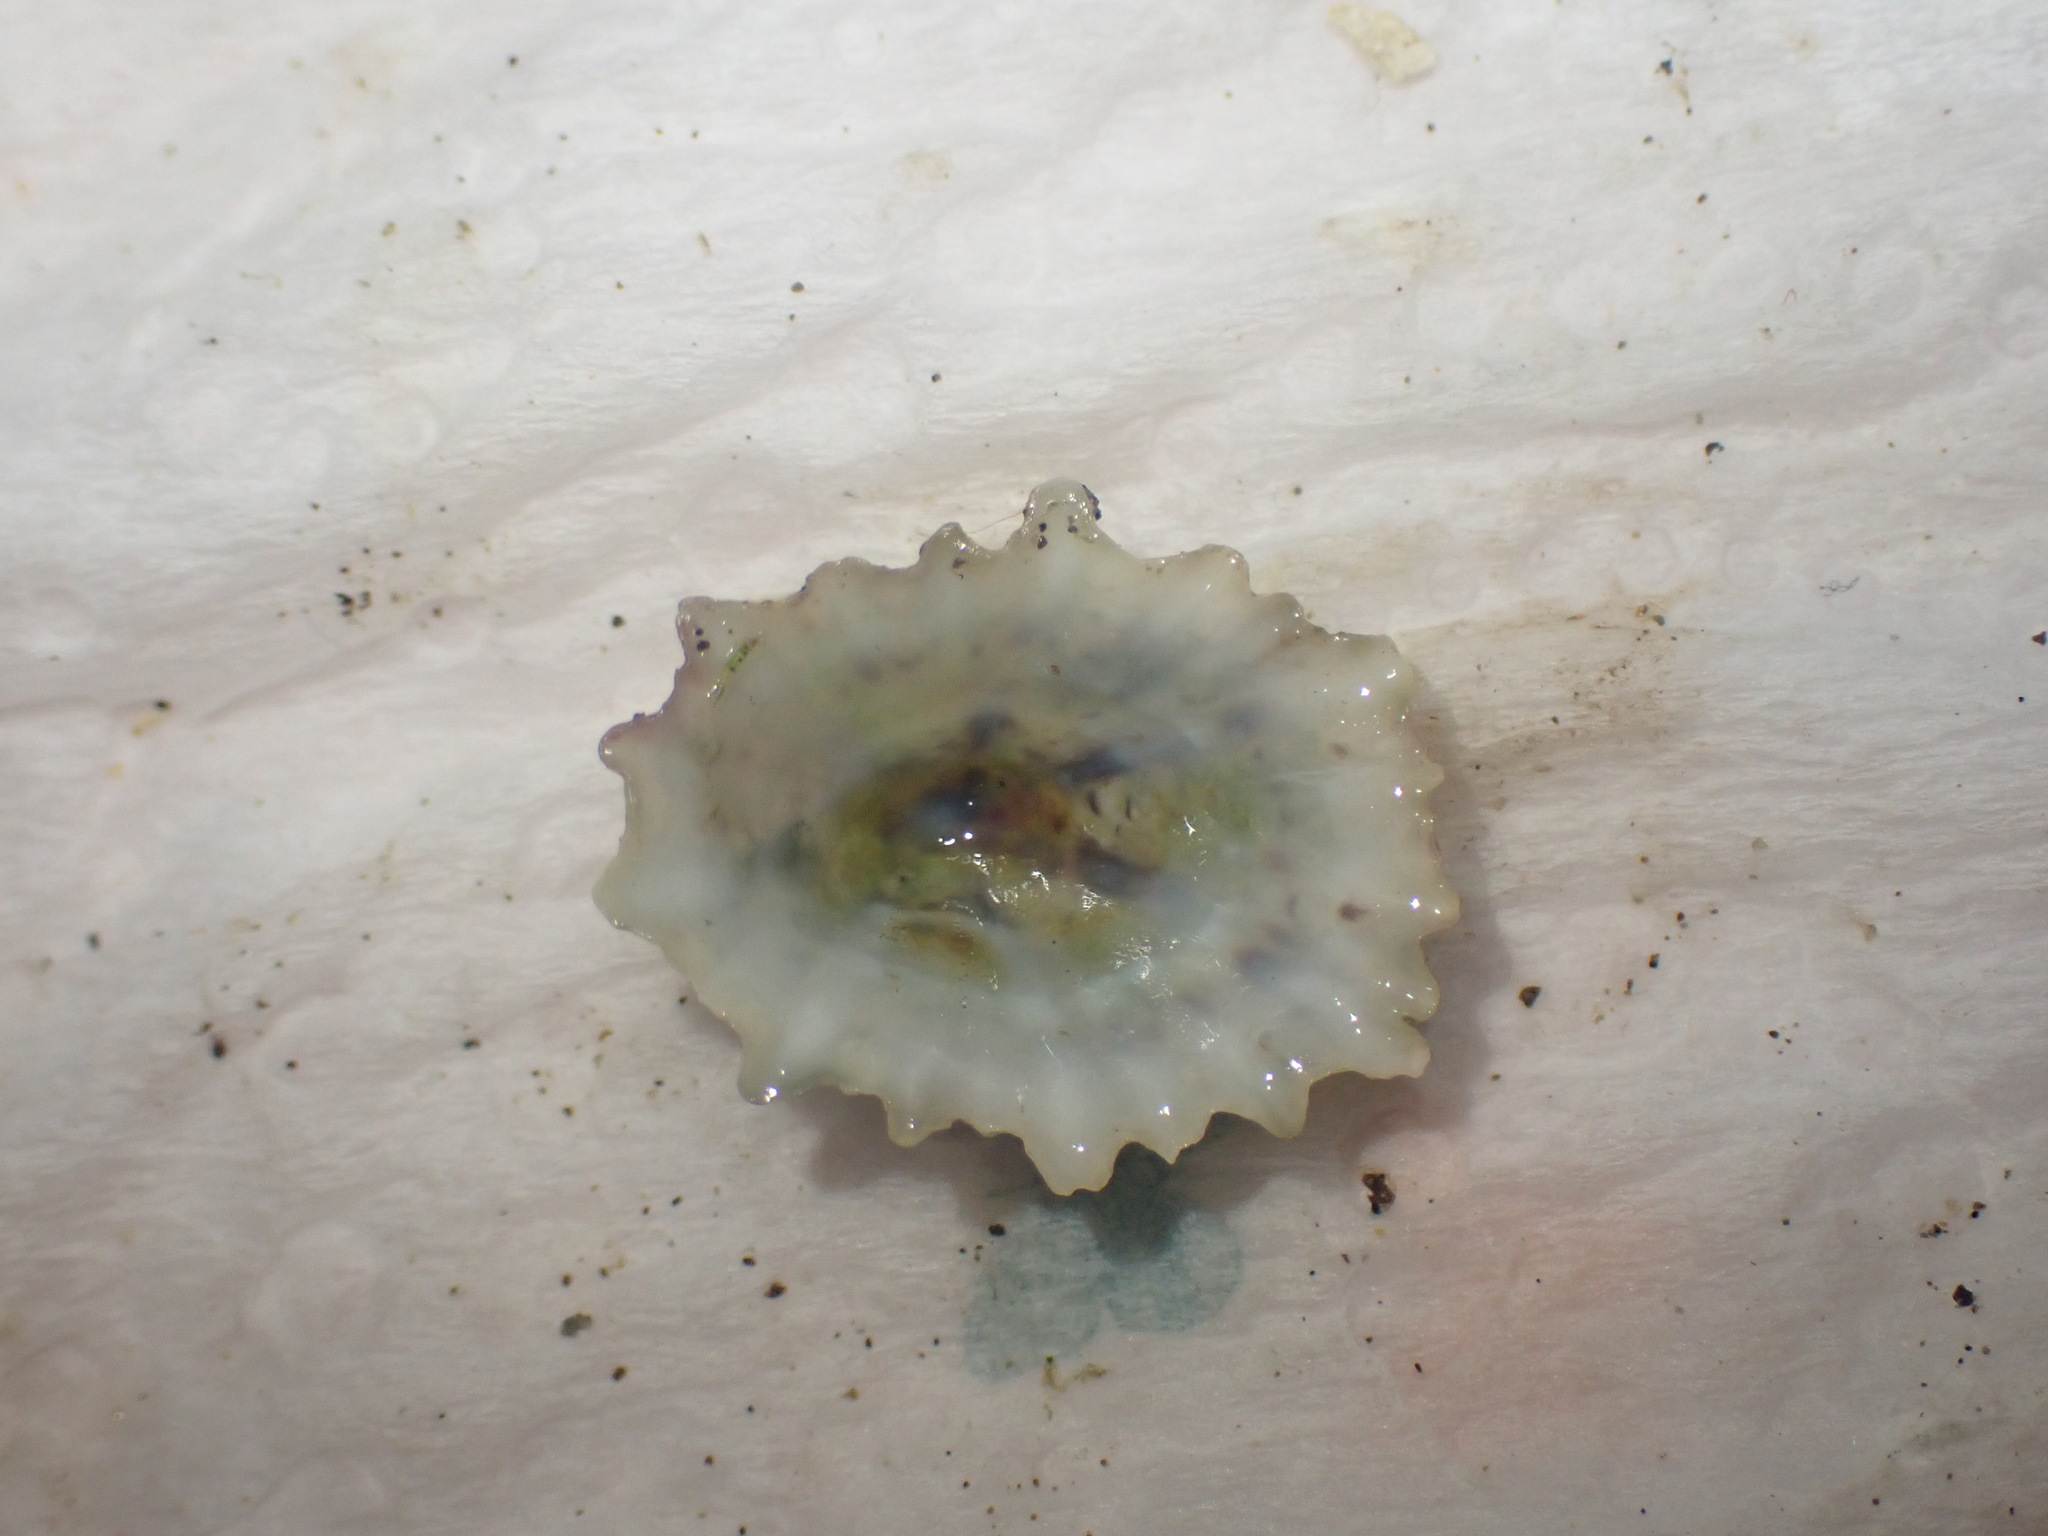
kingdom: Animalia
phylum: Mollusca
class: Gastropoda
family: Lottiidae
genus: Patelloida
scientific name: Patelloida corticata
